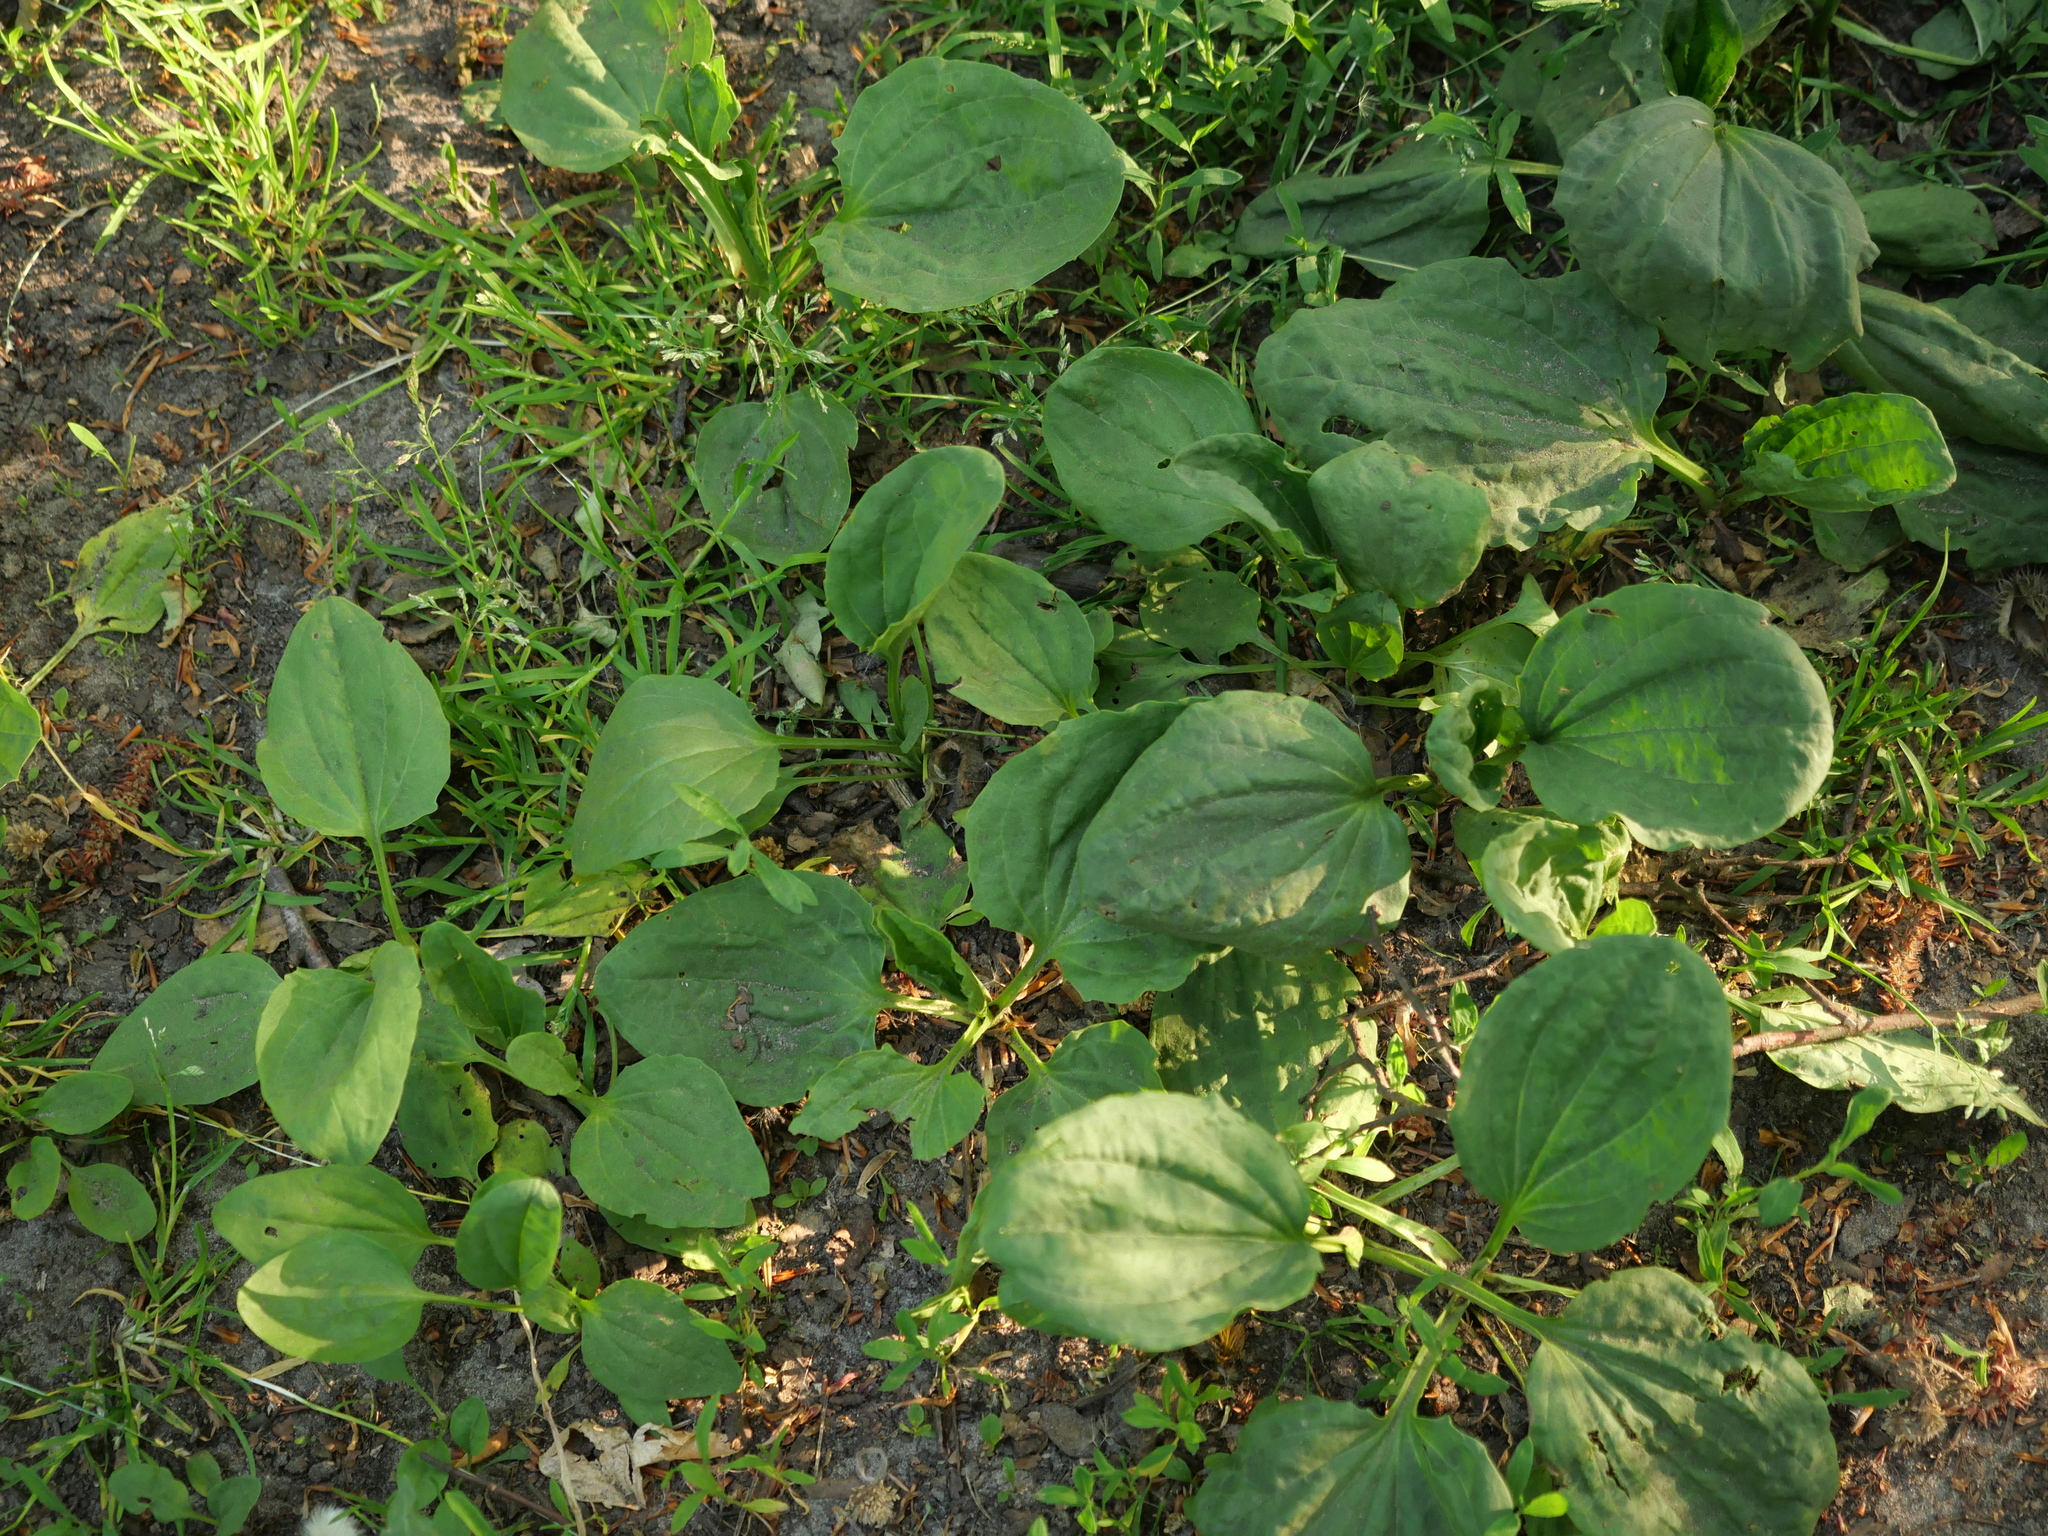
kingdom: Plantae
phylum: Tracheophyta
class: Magnoliopsida
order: Lamiales
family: Plantaginaceae
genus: Plantago
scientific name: Plantago major
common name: Common plantain
